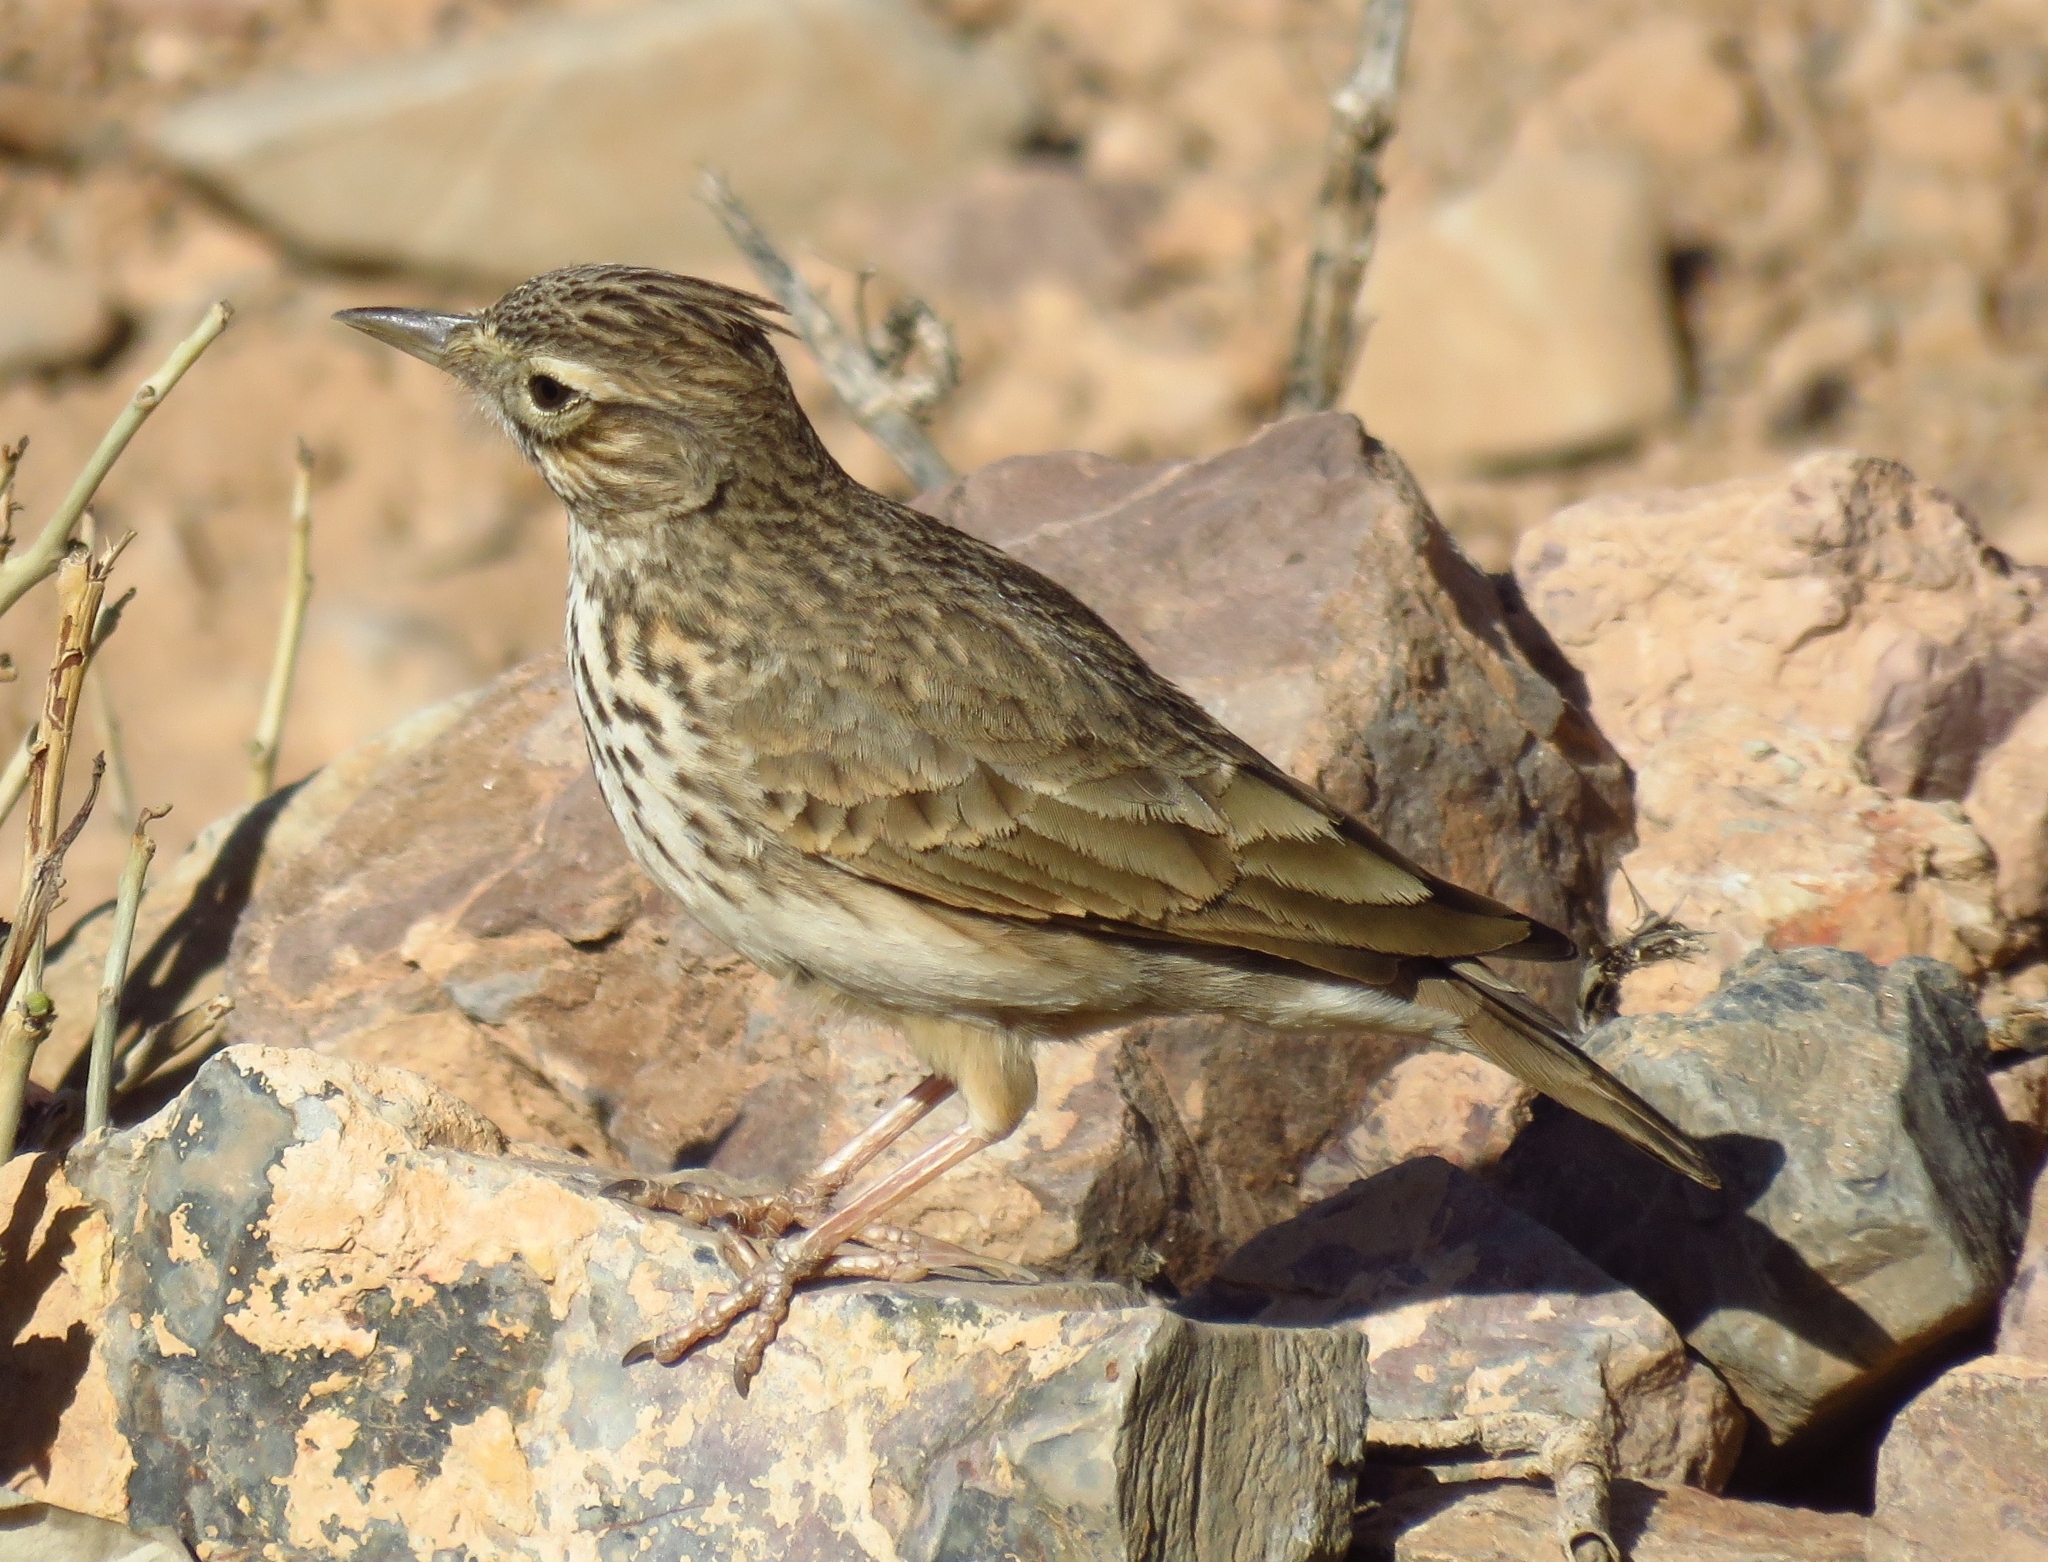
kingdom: Animalia
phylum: Chordata
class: Aves
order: Passeriformes
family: Alaudidae
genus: Galerida
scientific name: Galerida theklae
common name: Thekla lark
